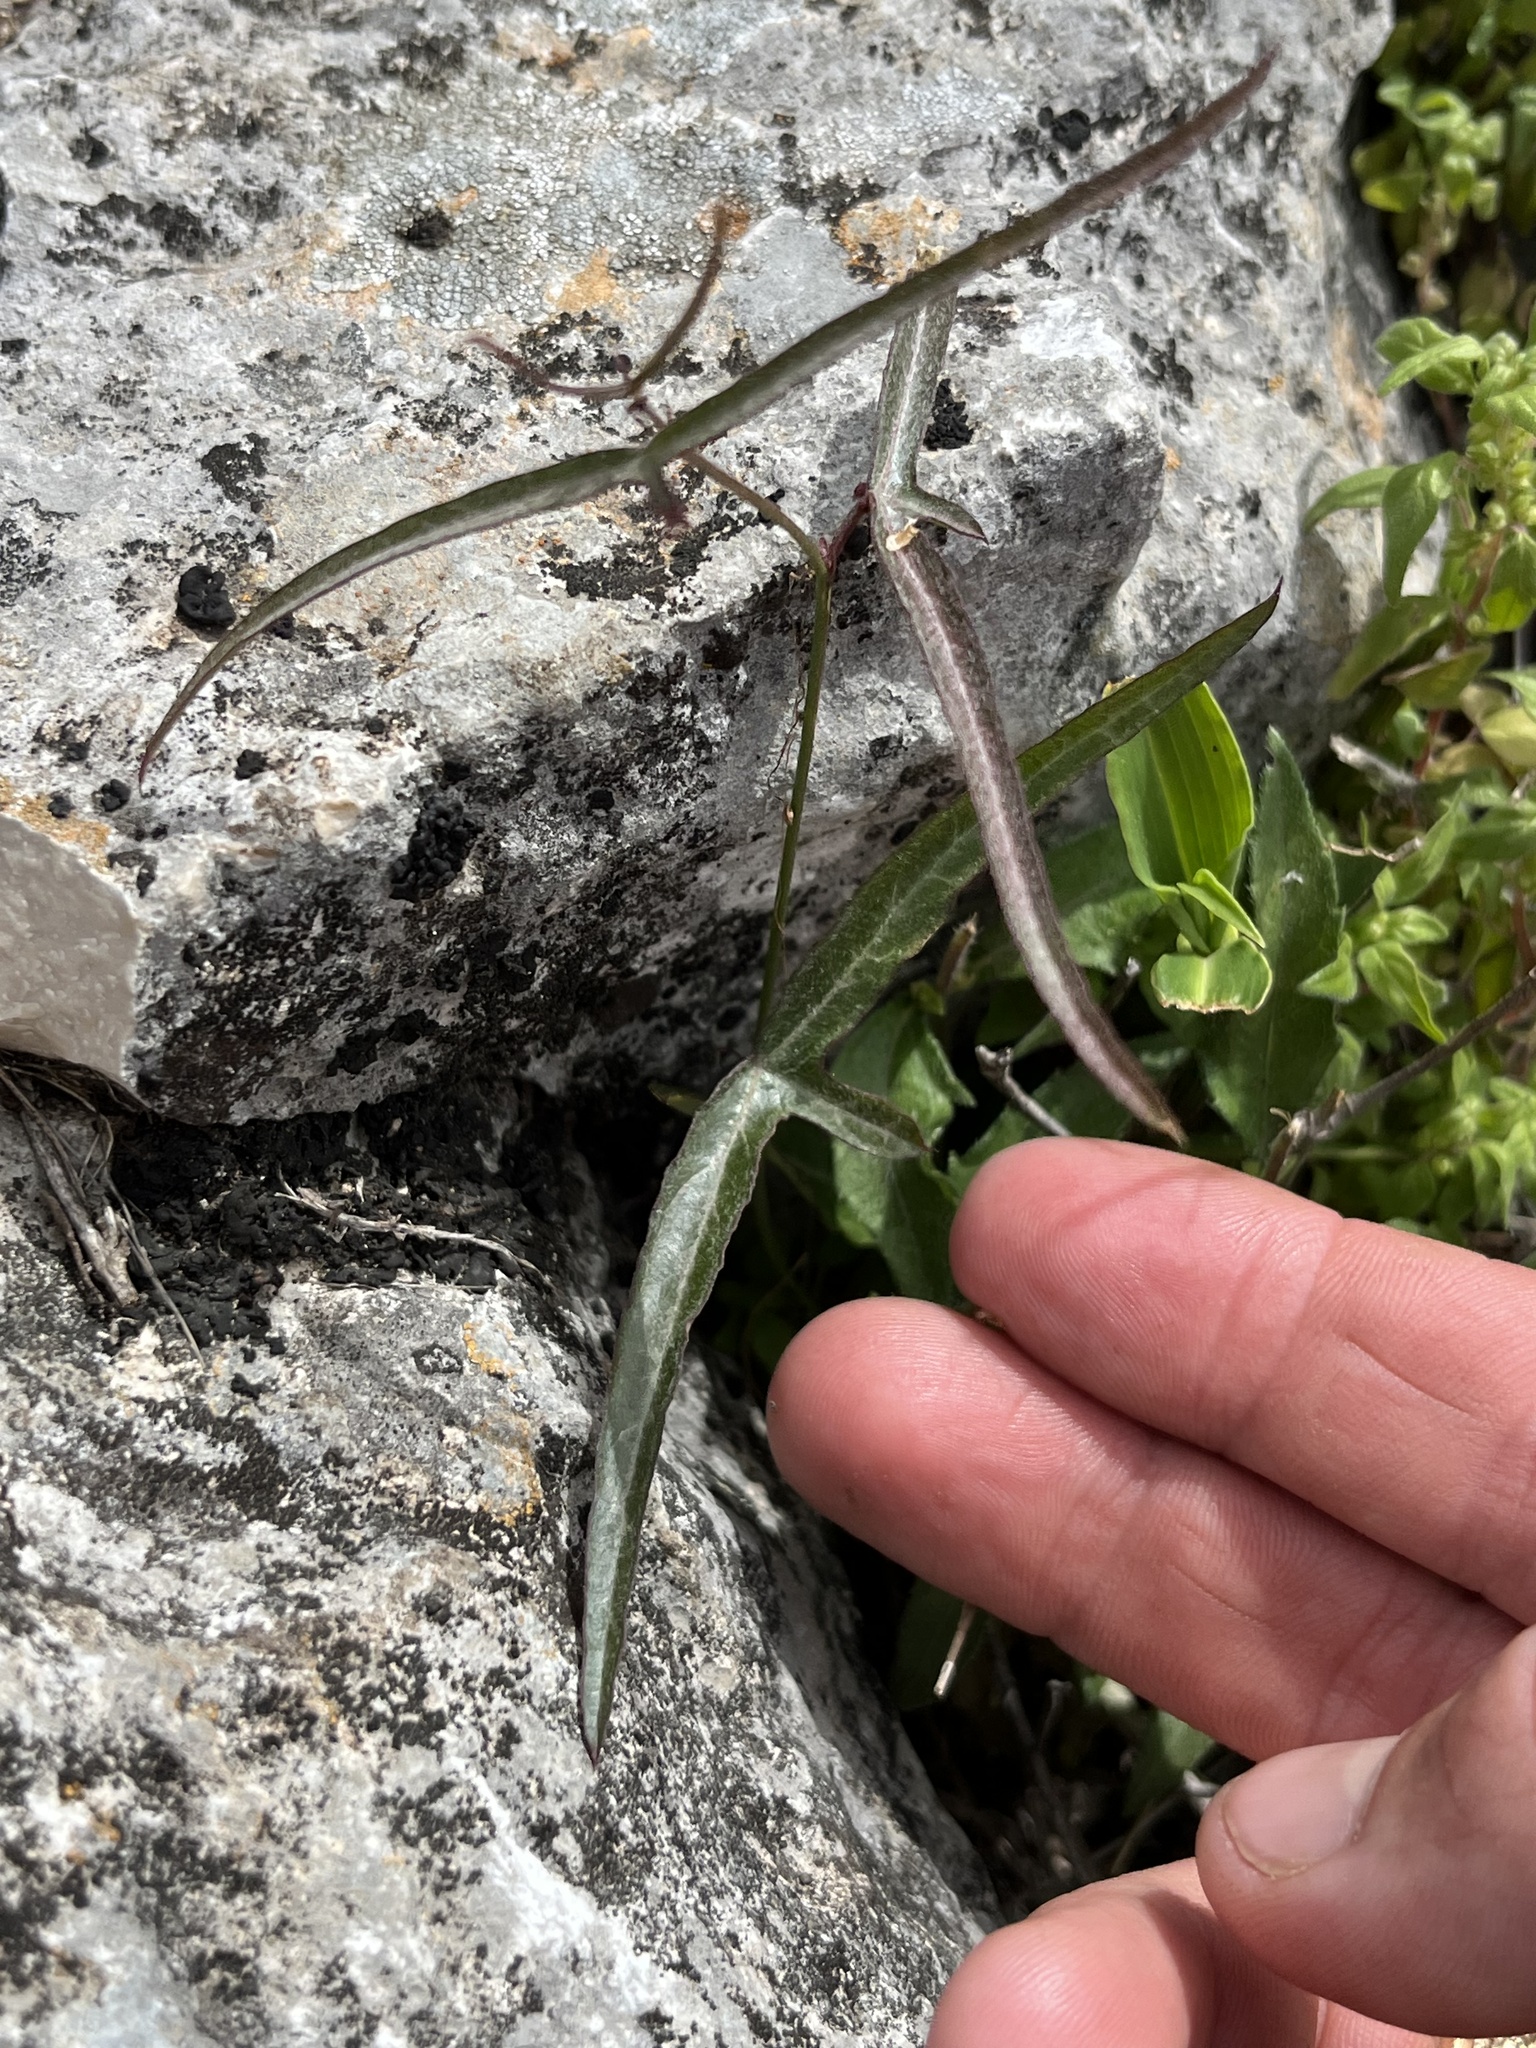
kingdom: Plantae
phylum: Tracheophyta
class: Magnoliopsida
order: Malpighiales
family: Passifloraceae
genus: Passiflora
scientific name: Passiflora tenuiloba
